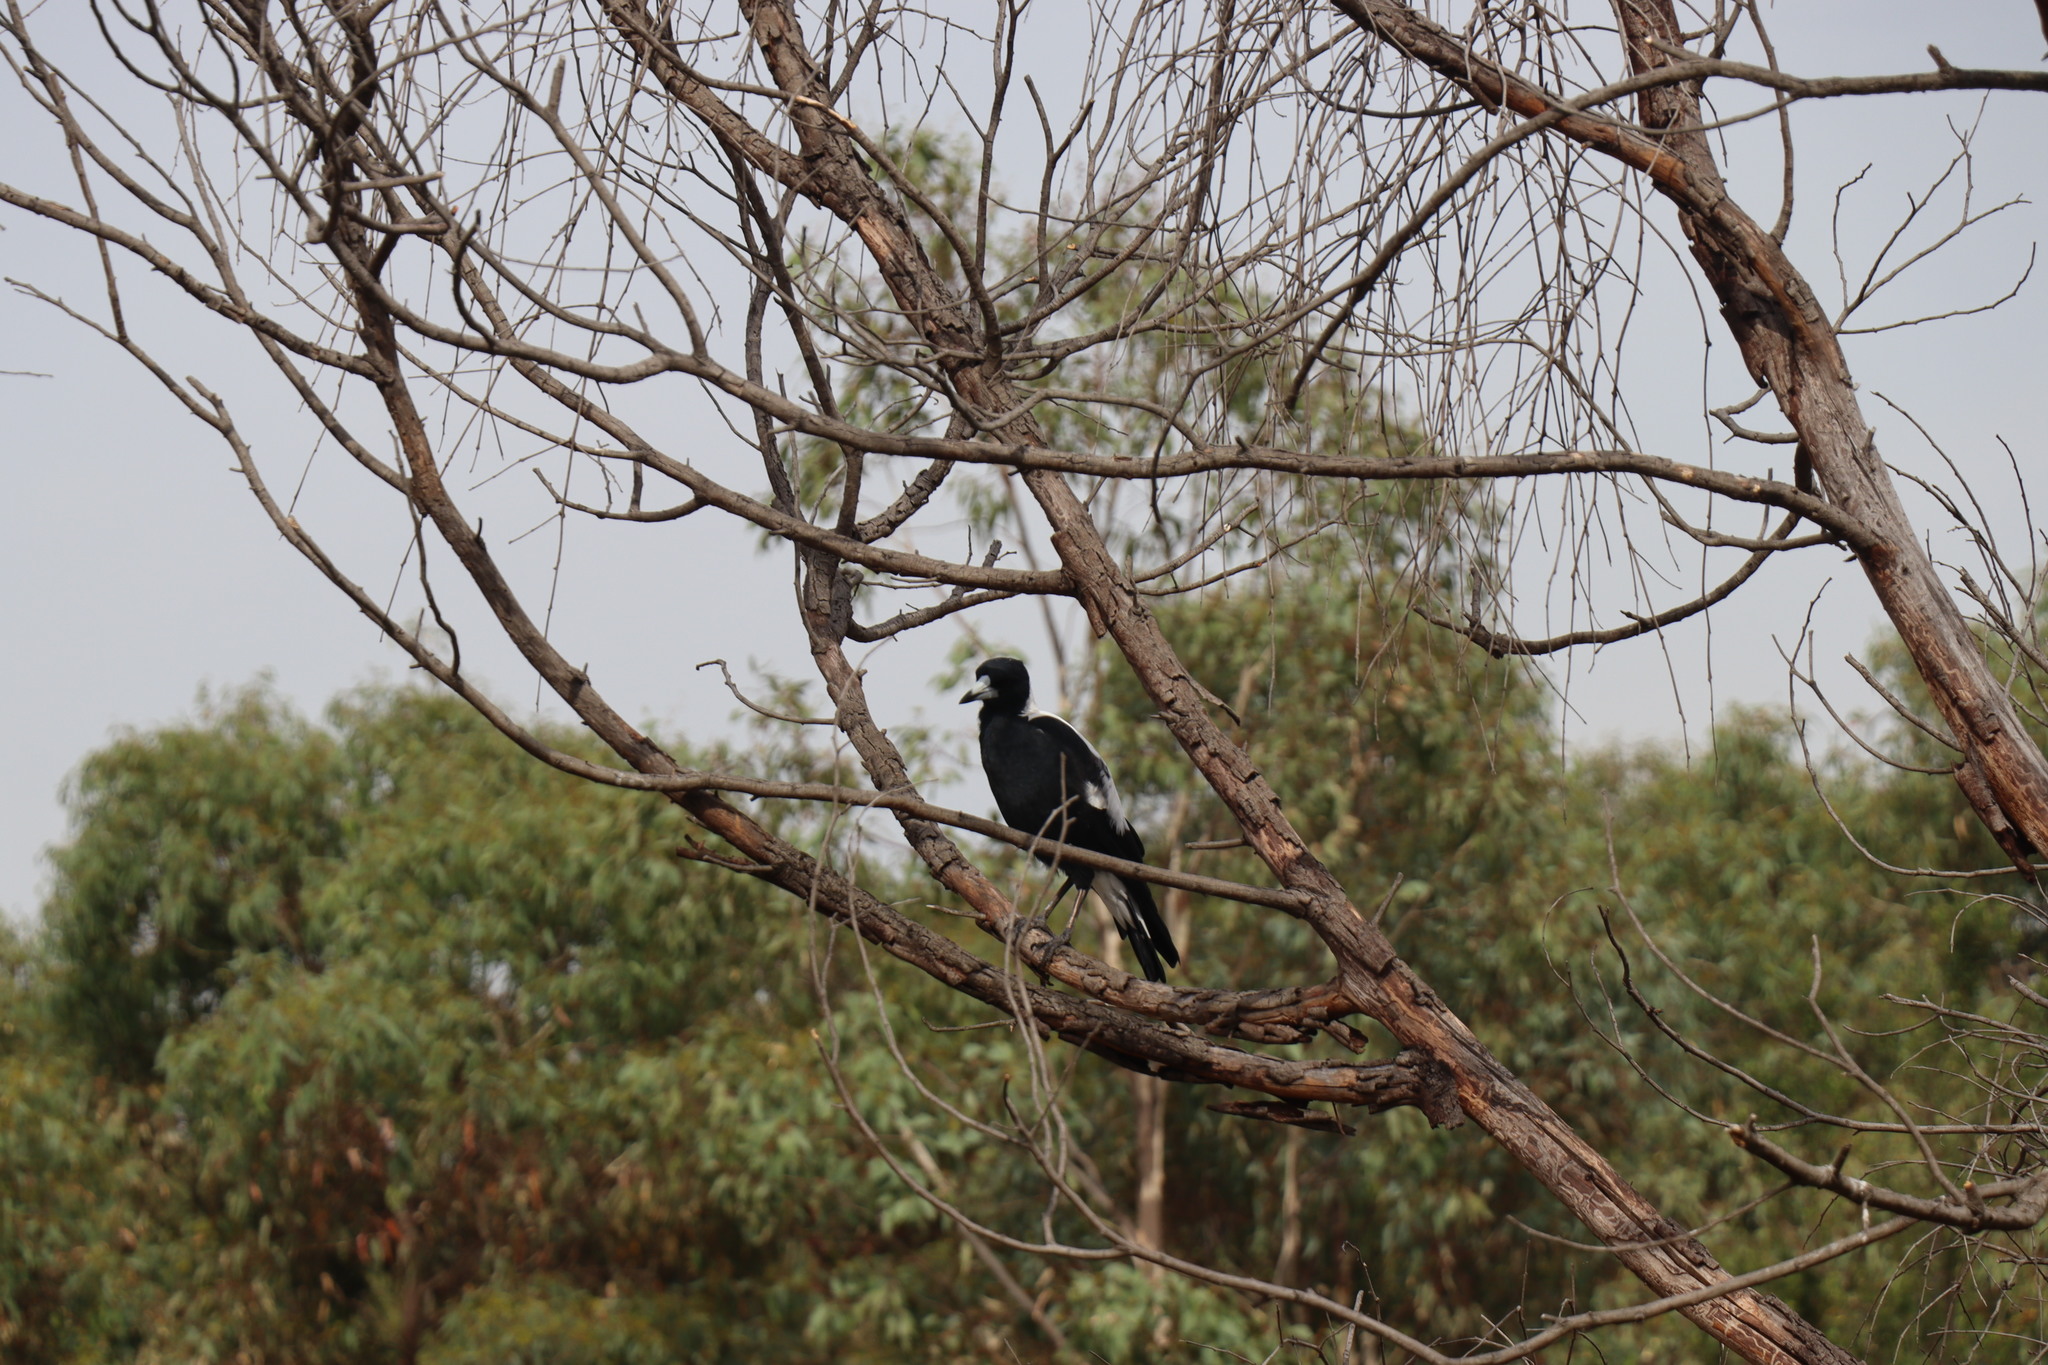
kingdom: Animalia
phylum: Chordata
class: Aves
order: Passeriformes
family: Cracticidae
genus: Gymnorhina
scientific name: Gymnorhina tibicen
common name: Australian magpie
